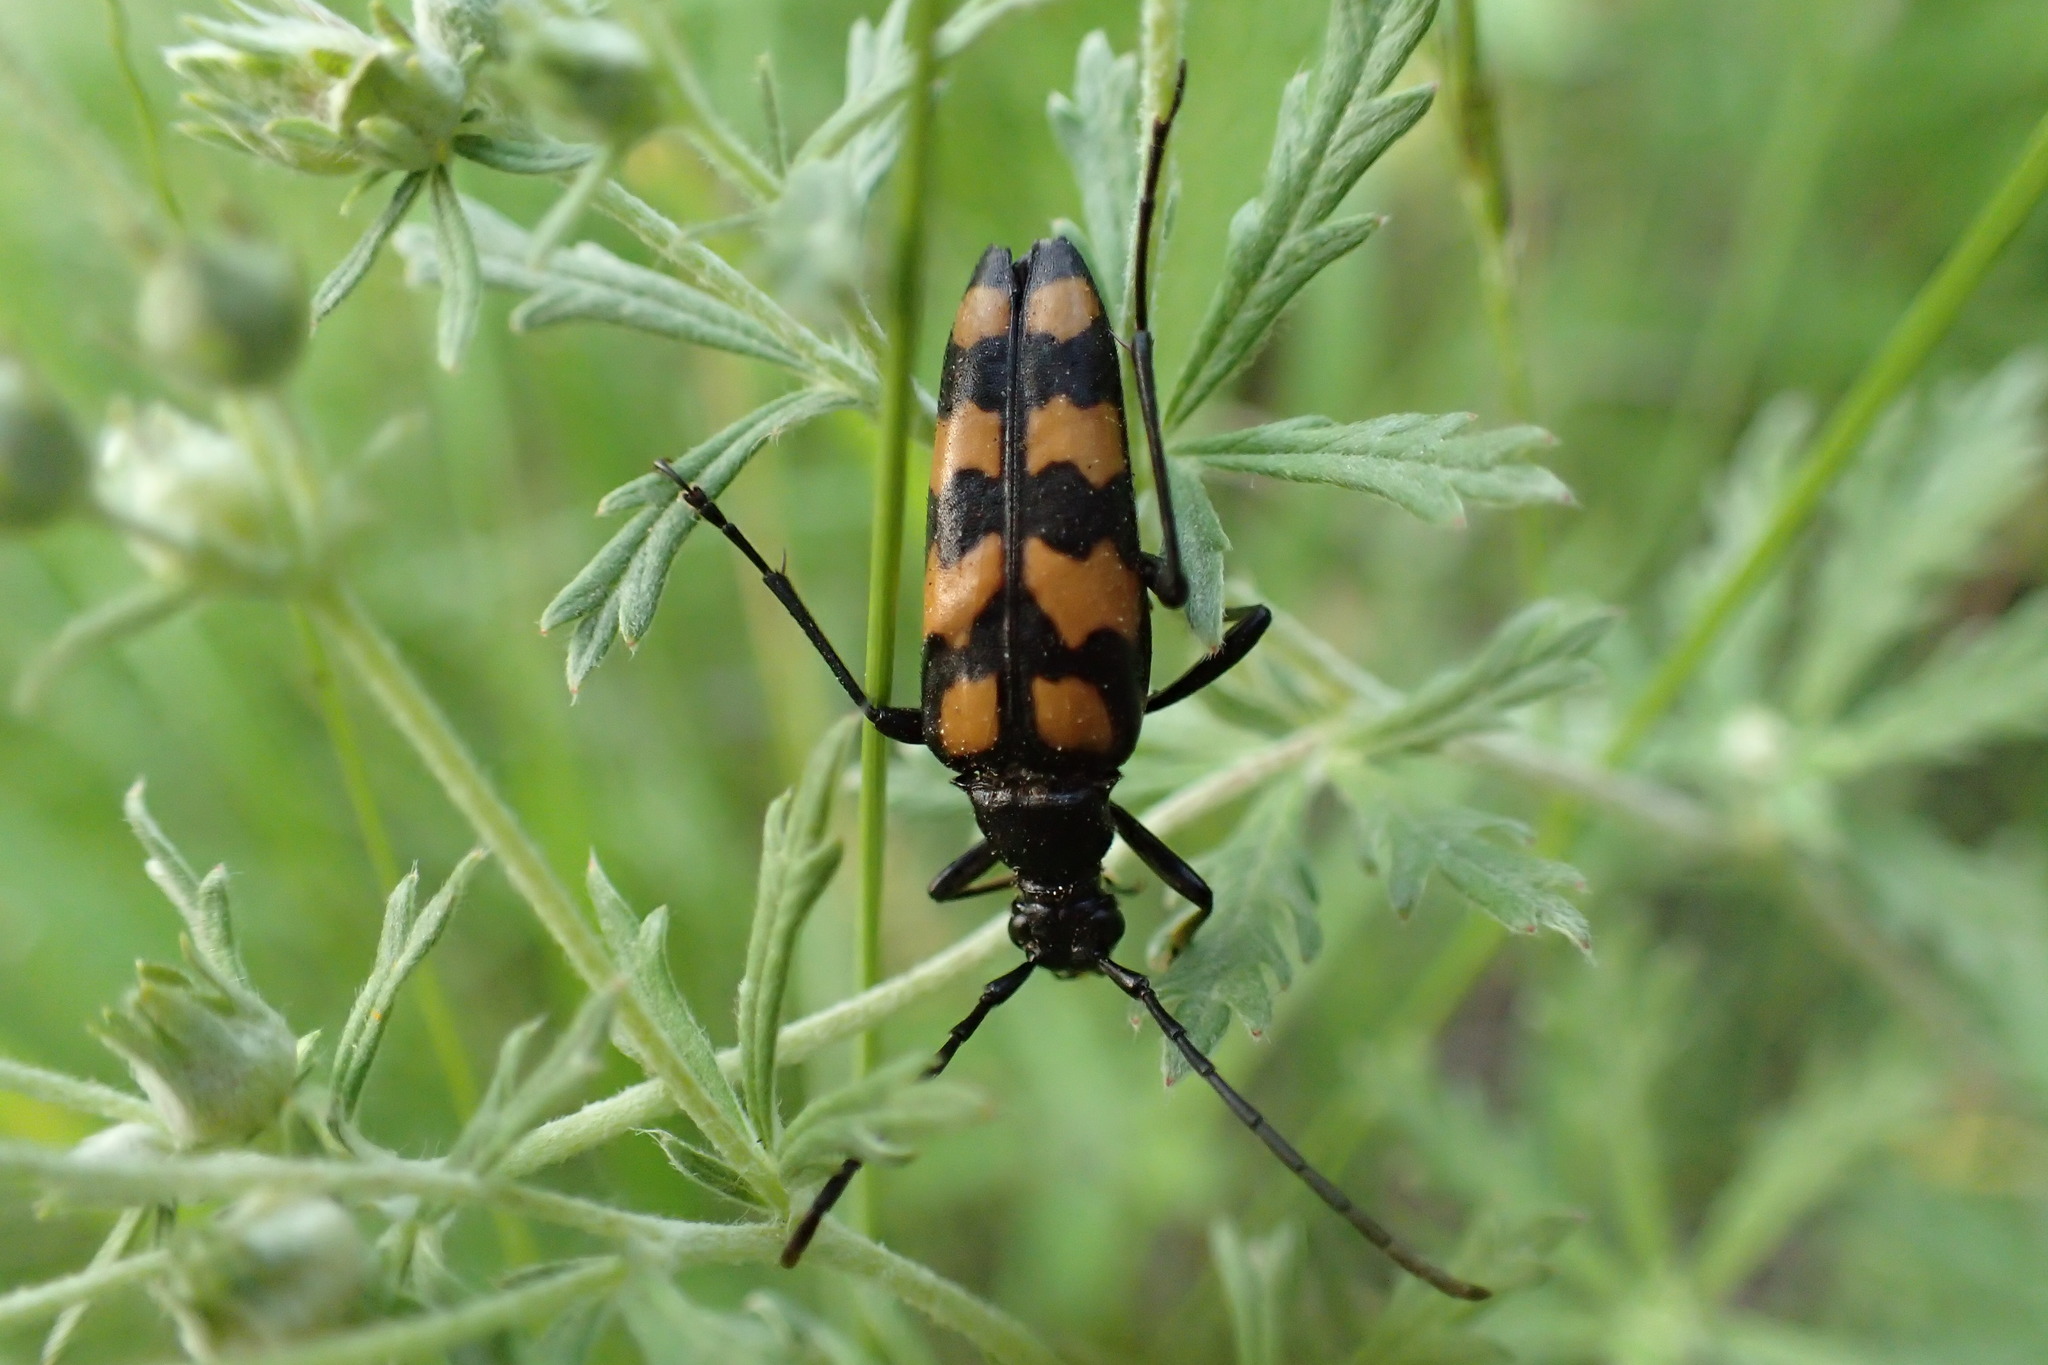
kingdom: Animalia
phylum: Arthropoda
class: Insecta
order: Coleoptera
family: Cerambycidae
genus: Leptura
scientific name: Leptura quadrifasciata
